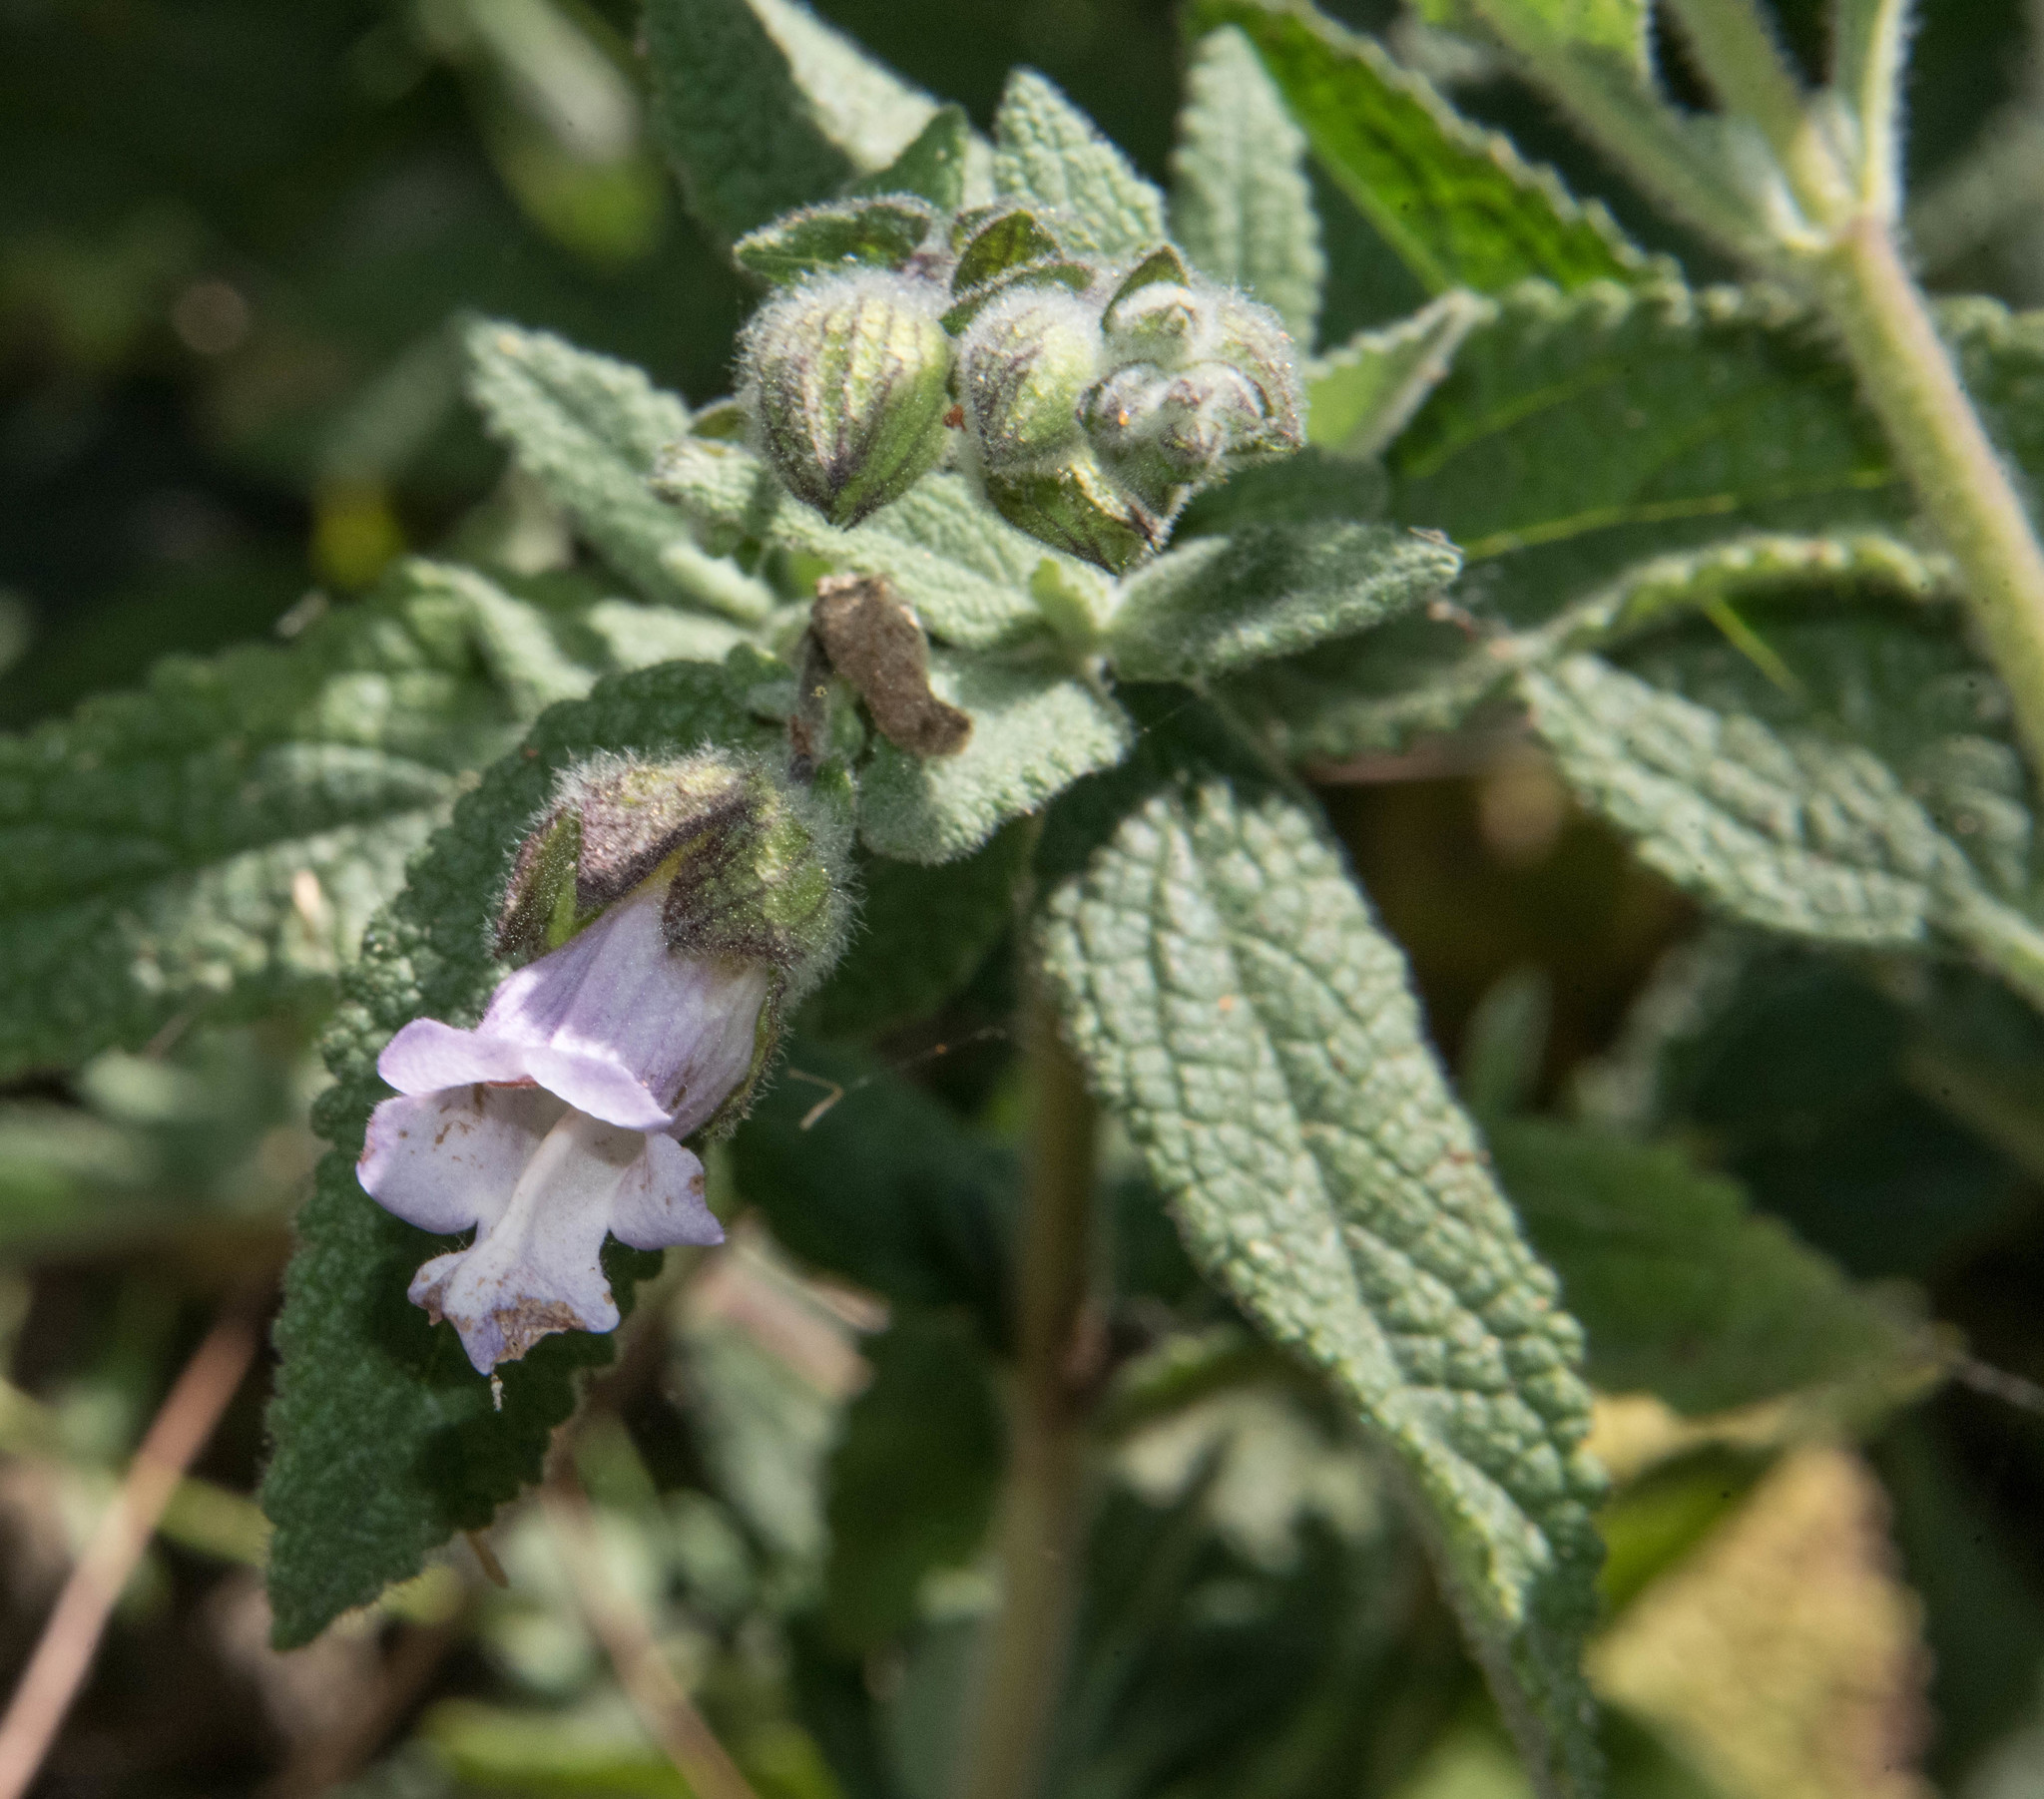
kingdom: Plantae
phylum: Tracheophyta
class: Magnoliopsida
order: Lamiales
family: Lamiaceae
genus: Lepechinia
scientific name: Lepechinia calycina
